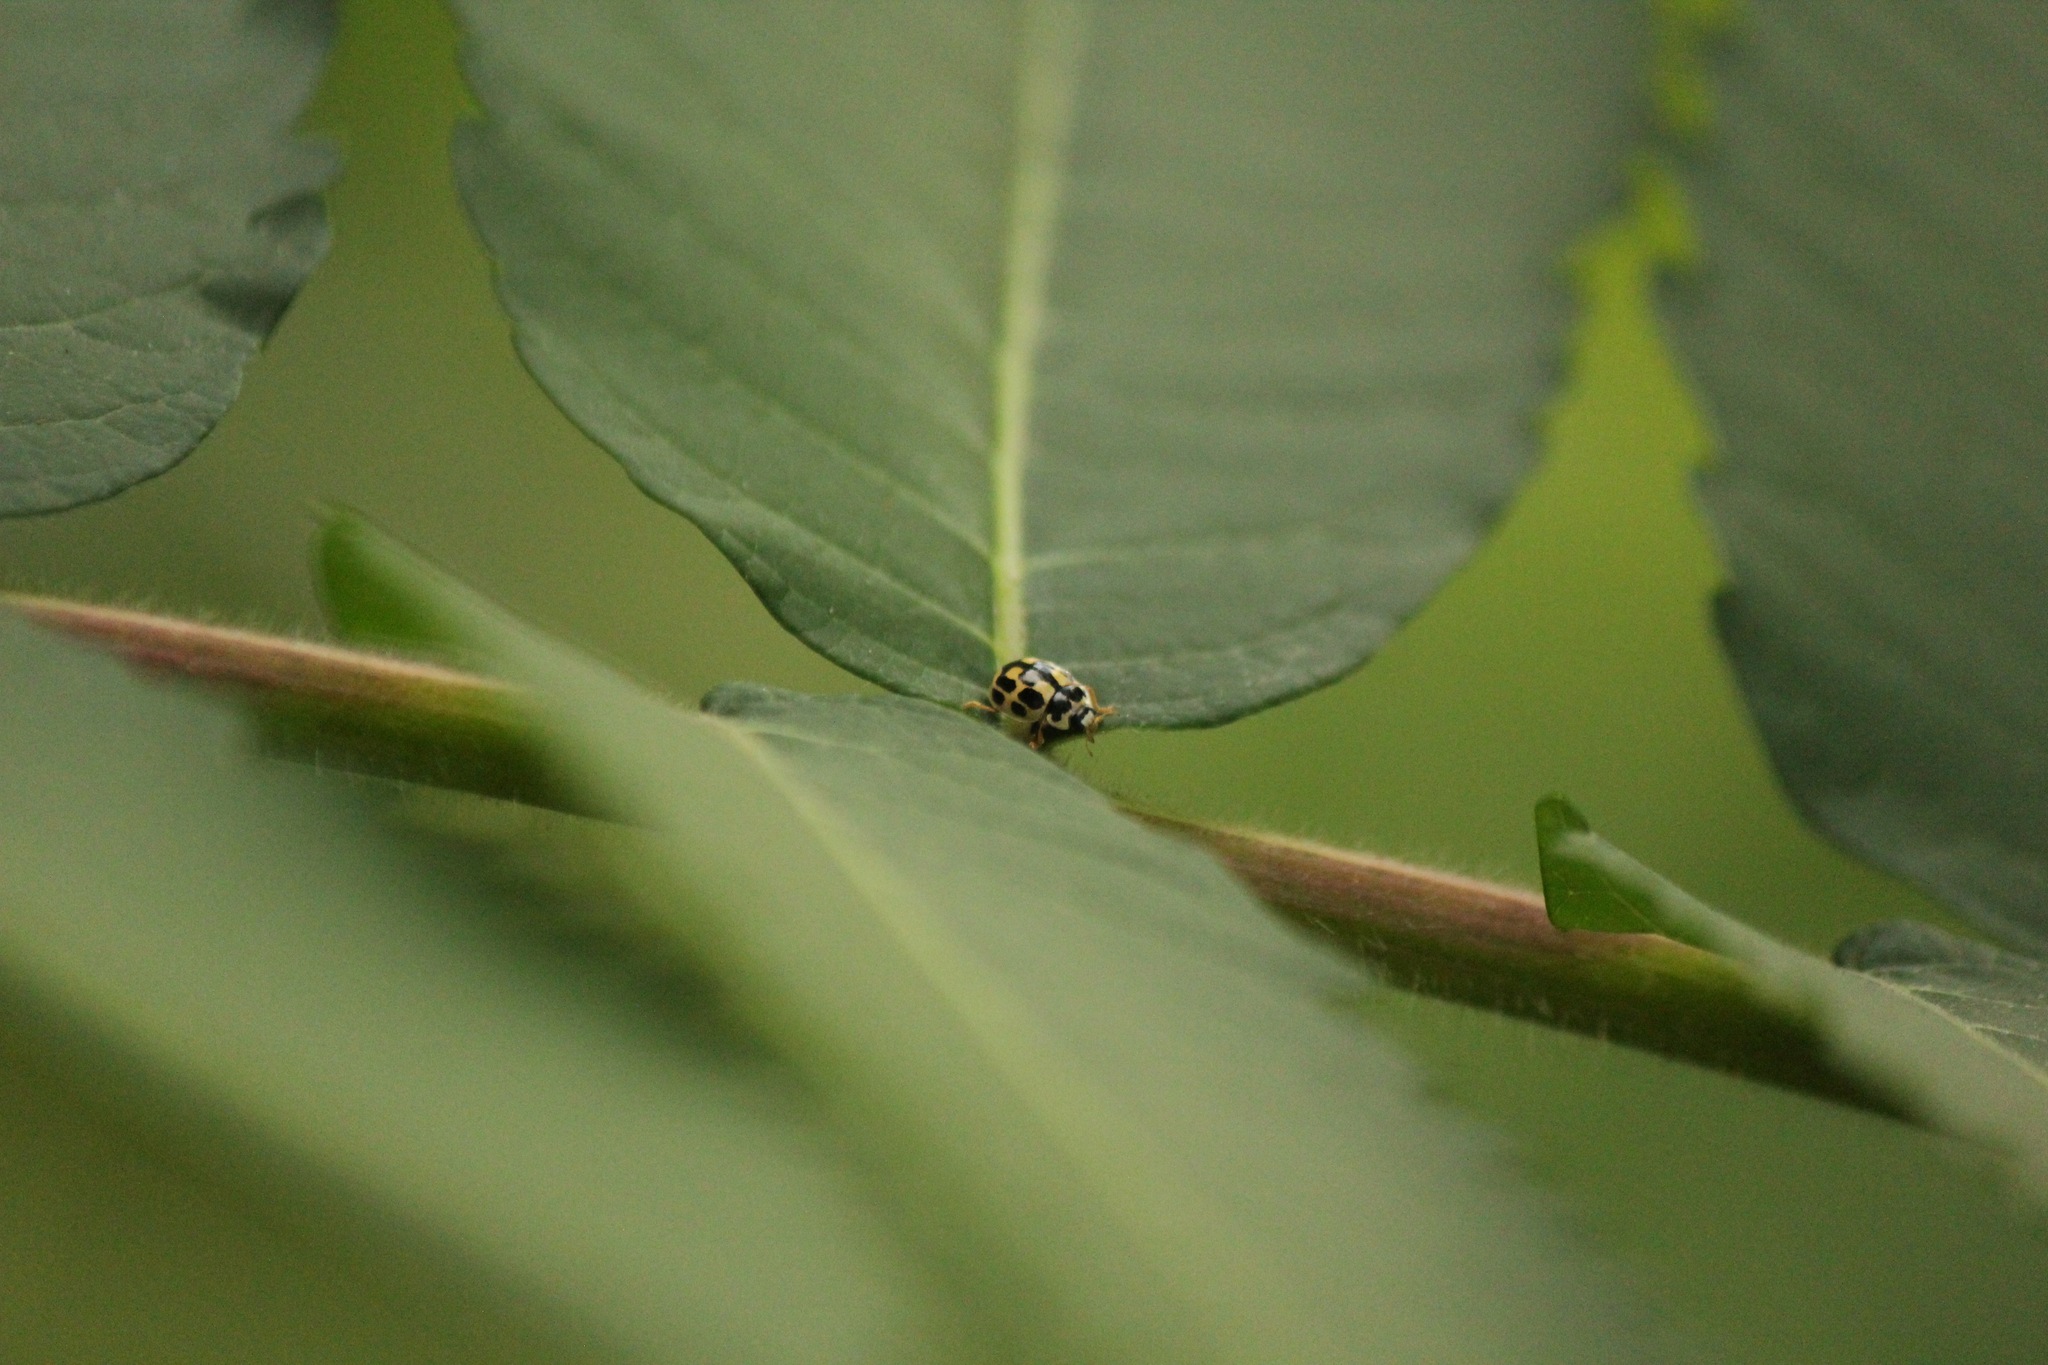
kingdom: Animalia
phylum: Arthropoda
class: Insecta
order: Coleoptera
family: Coccinellidae
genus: Propylaea
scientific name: Propylaea quatuordecimpunctata
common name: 14-spotted ladybird beetle
